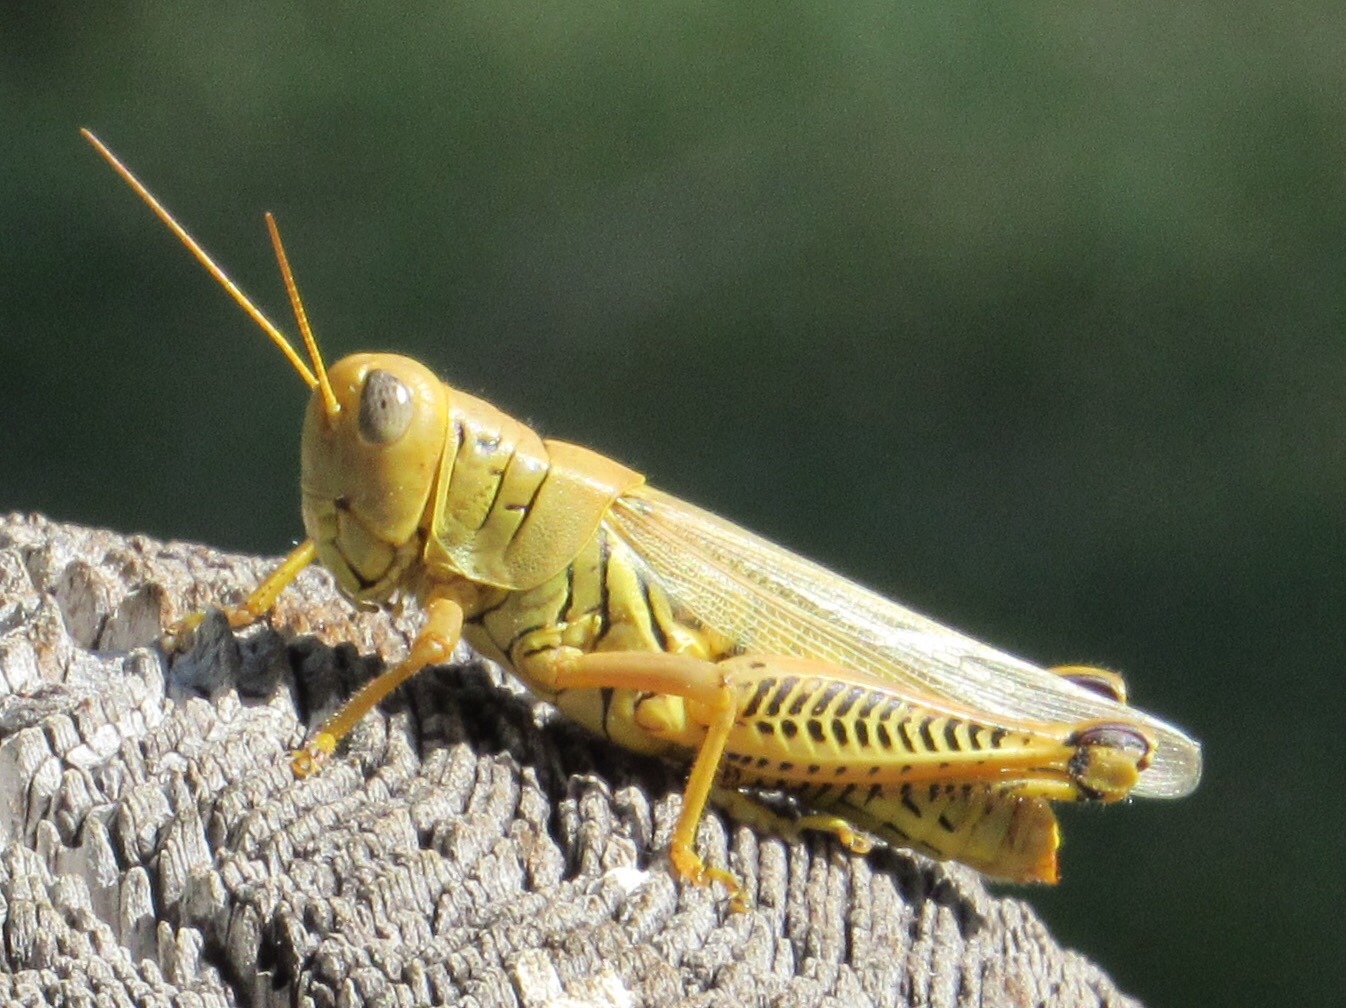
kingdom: Animalia
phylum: Arthropoda
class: Insecta
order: Orthoptera
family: Acrididae
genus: Melanoplus
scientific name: Melanoplus differentialis
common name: Differential grasshopper
